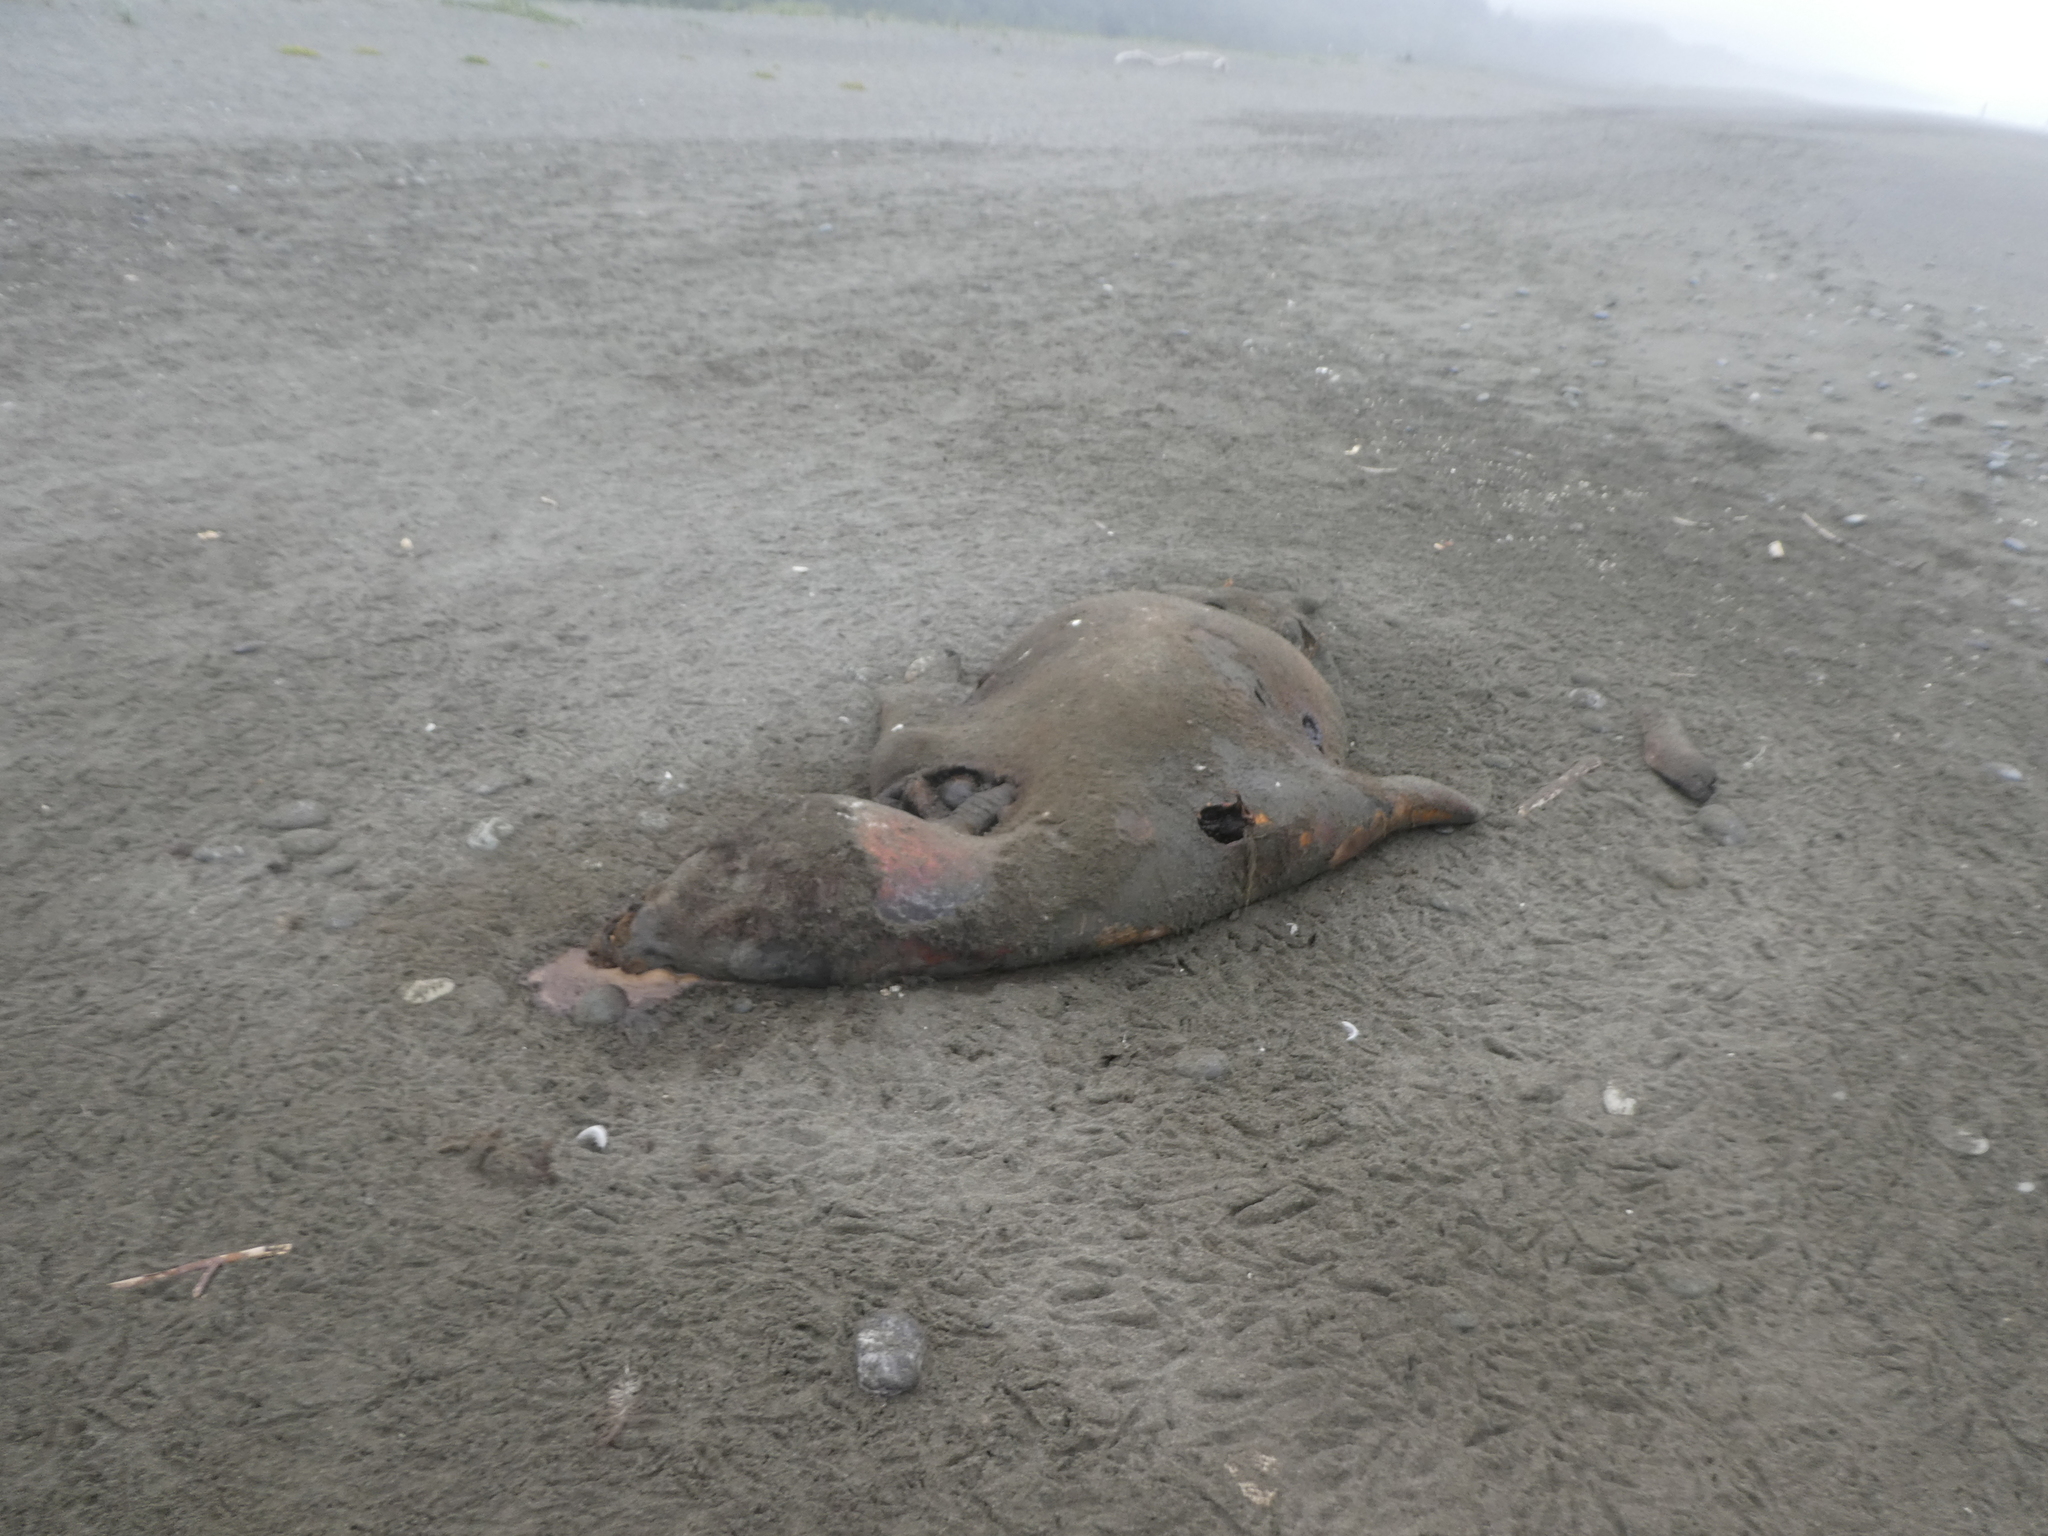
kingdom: Animalia
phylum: Chordata
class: Mammalia
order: Carnivora
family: Otariidae
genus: Zalophus
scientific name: Zalophus californianus
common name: California sea lion
